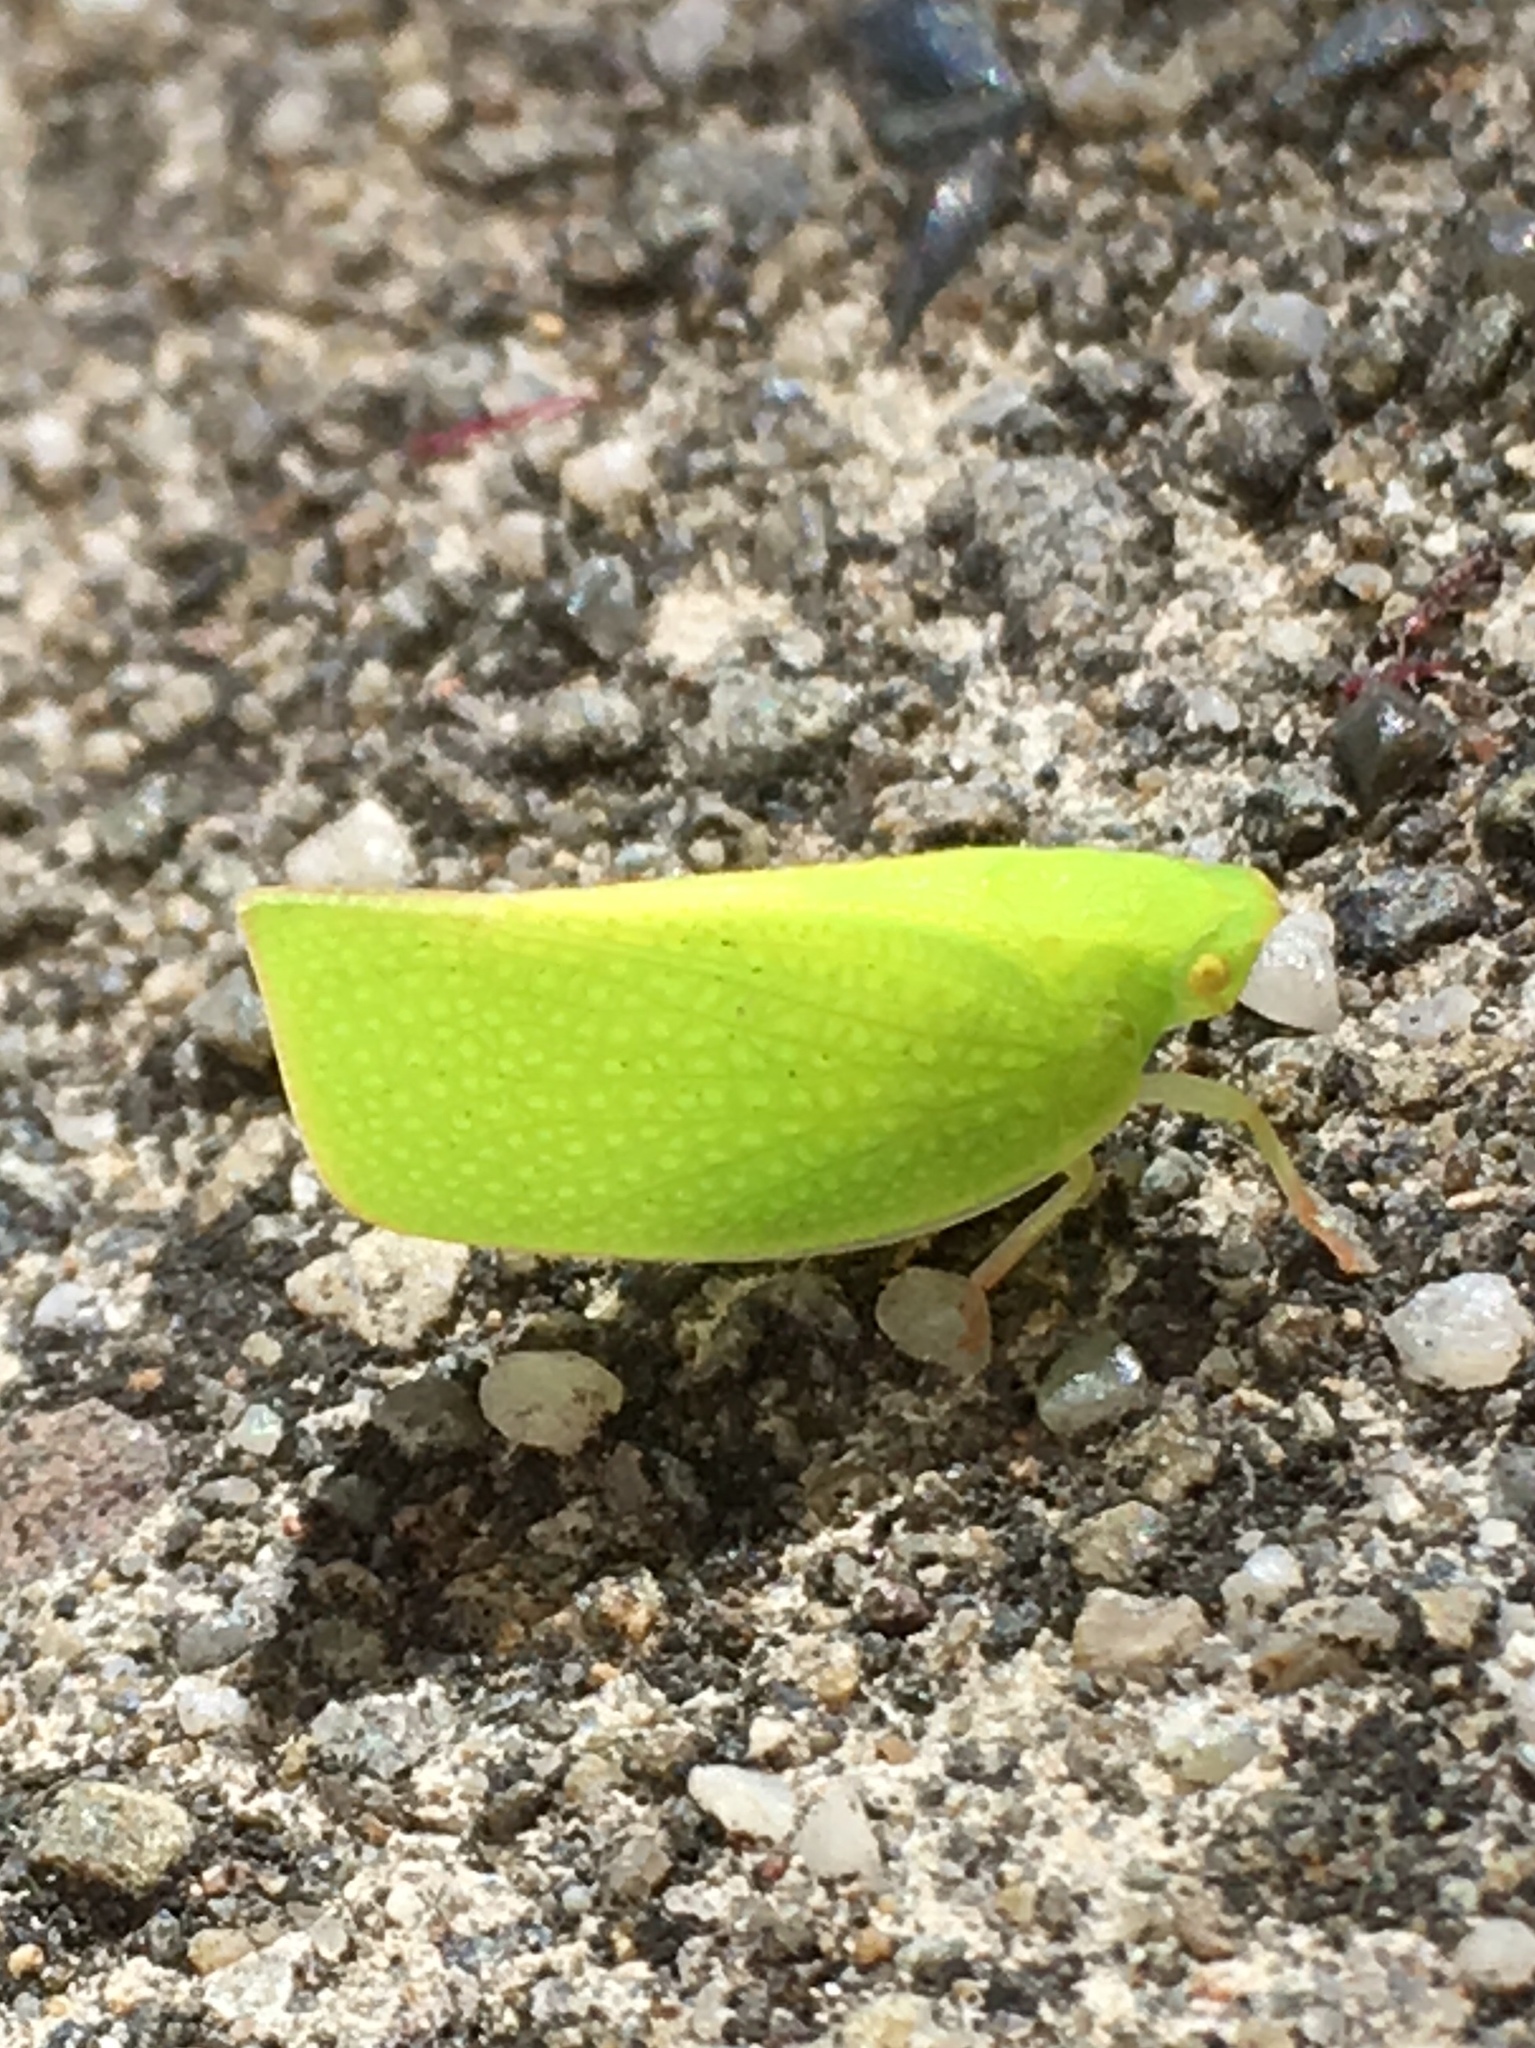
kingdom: Animalia
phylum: Arthropoda
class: Insecta
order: Hemiptera
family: Flatidae
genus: Siphanta
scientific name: Siphanta acuta
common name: Torpedo bug
